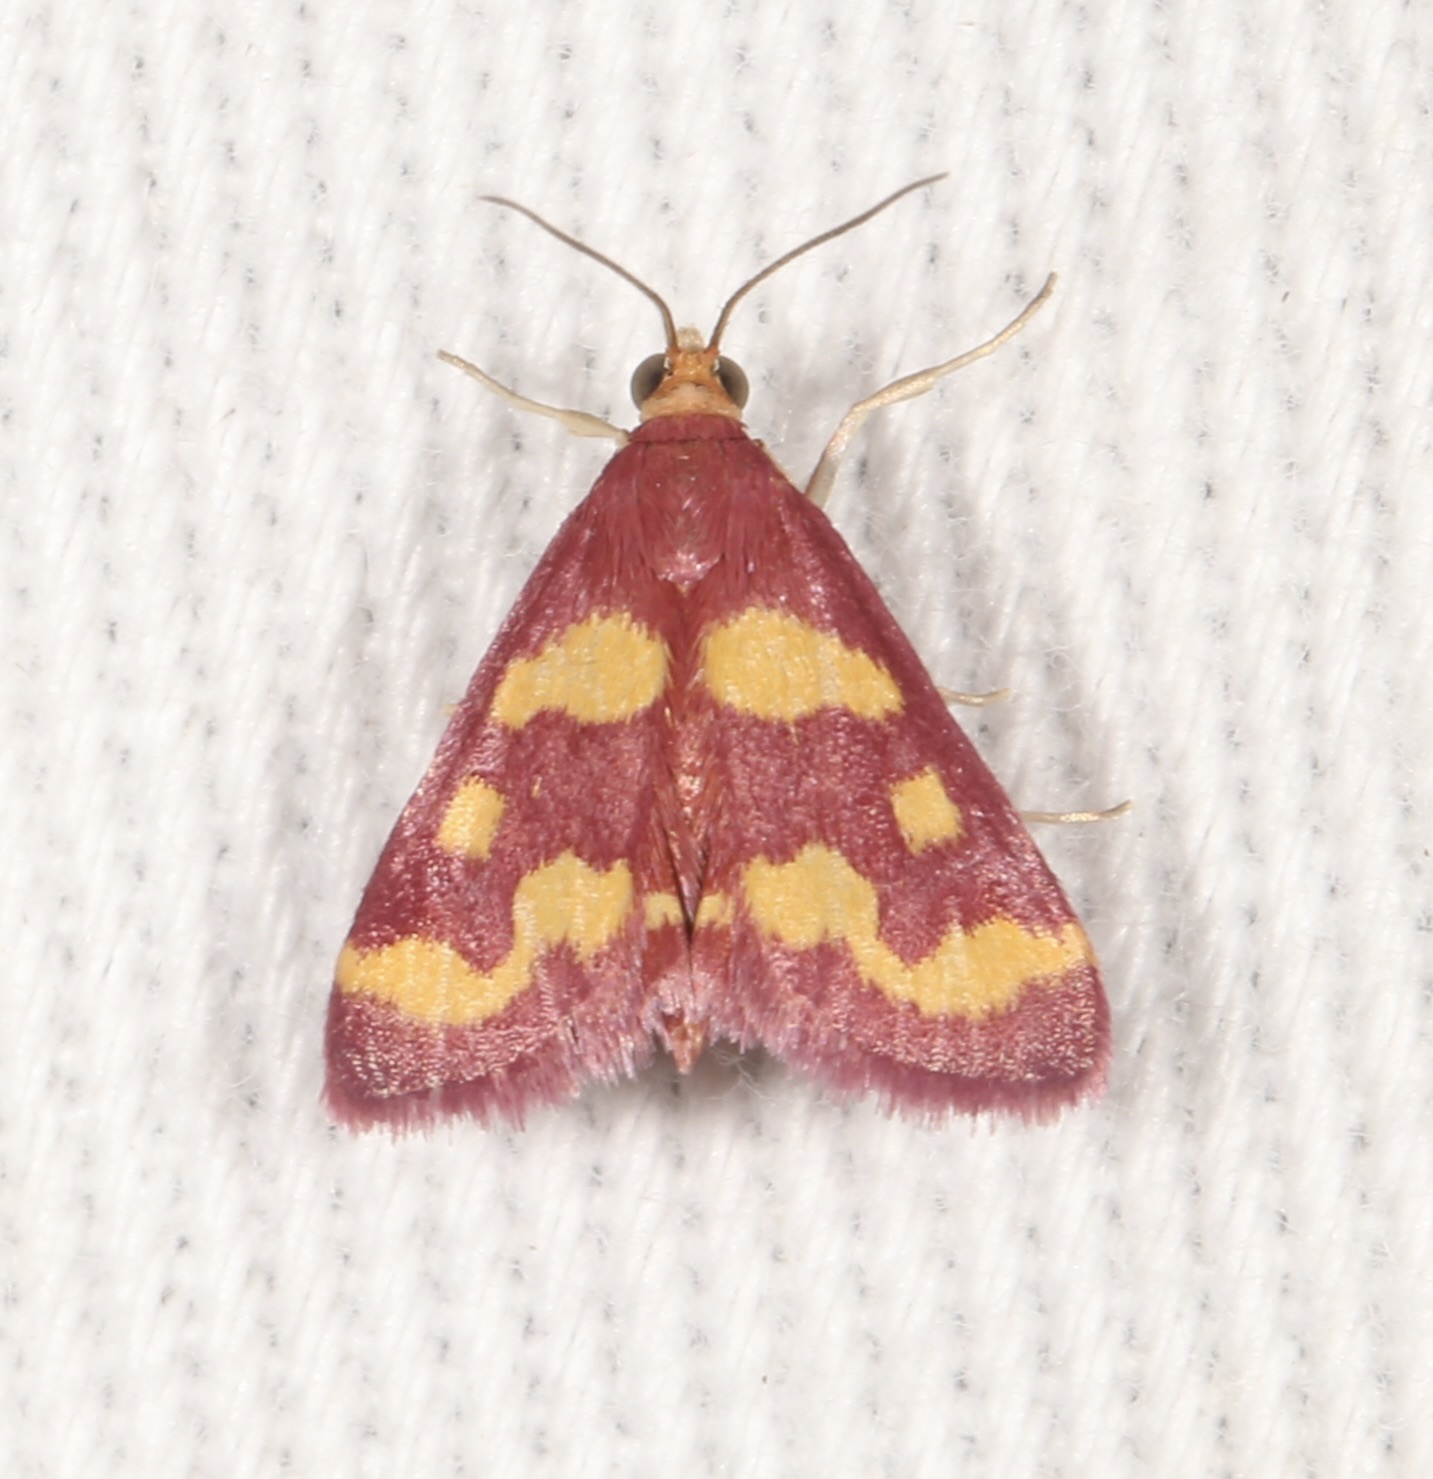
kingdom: Animalia
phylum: Arthropoda
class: Insecta
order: Lepidoptera
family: Crambidae
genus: Pyrausta
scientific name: Pyrausta tyralis
